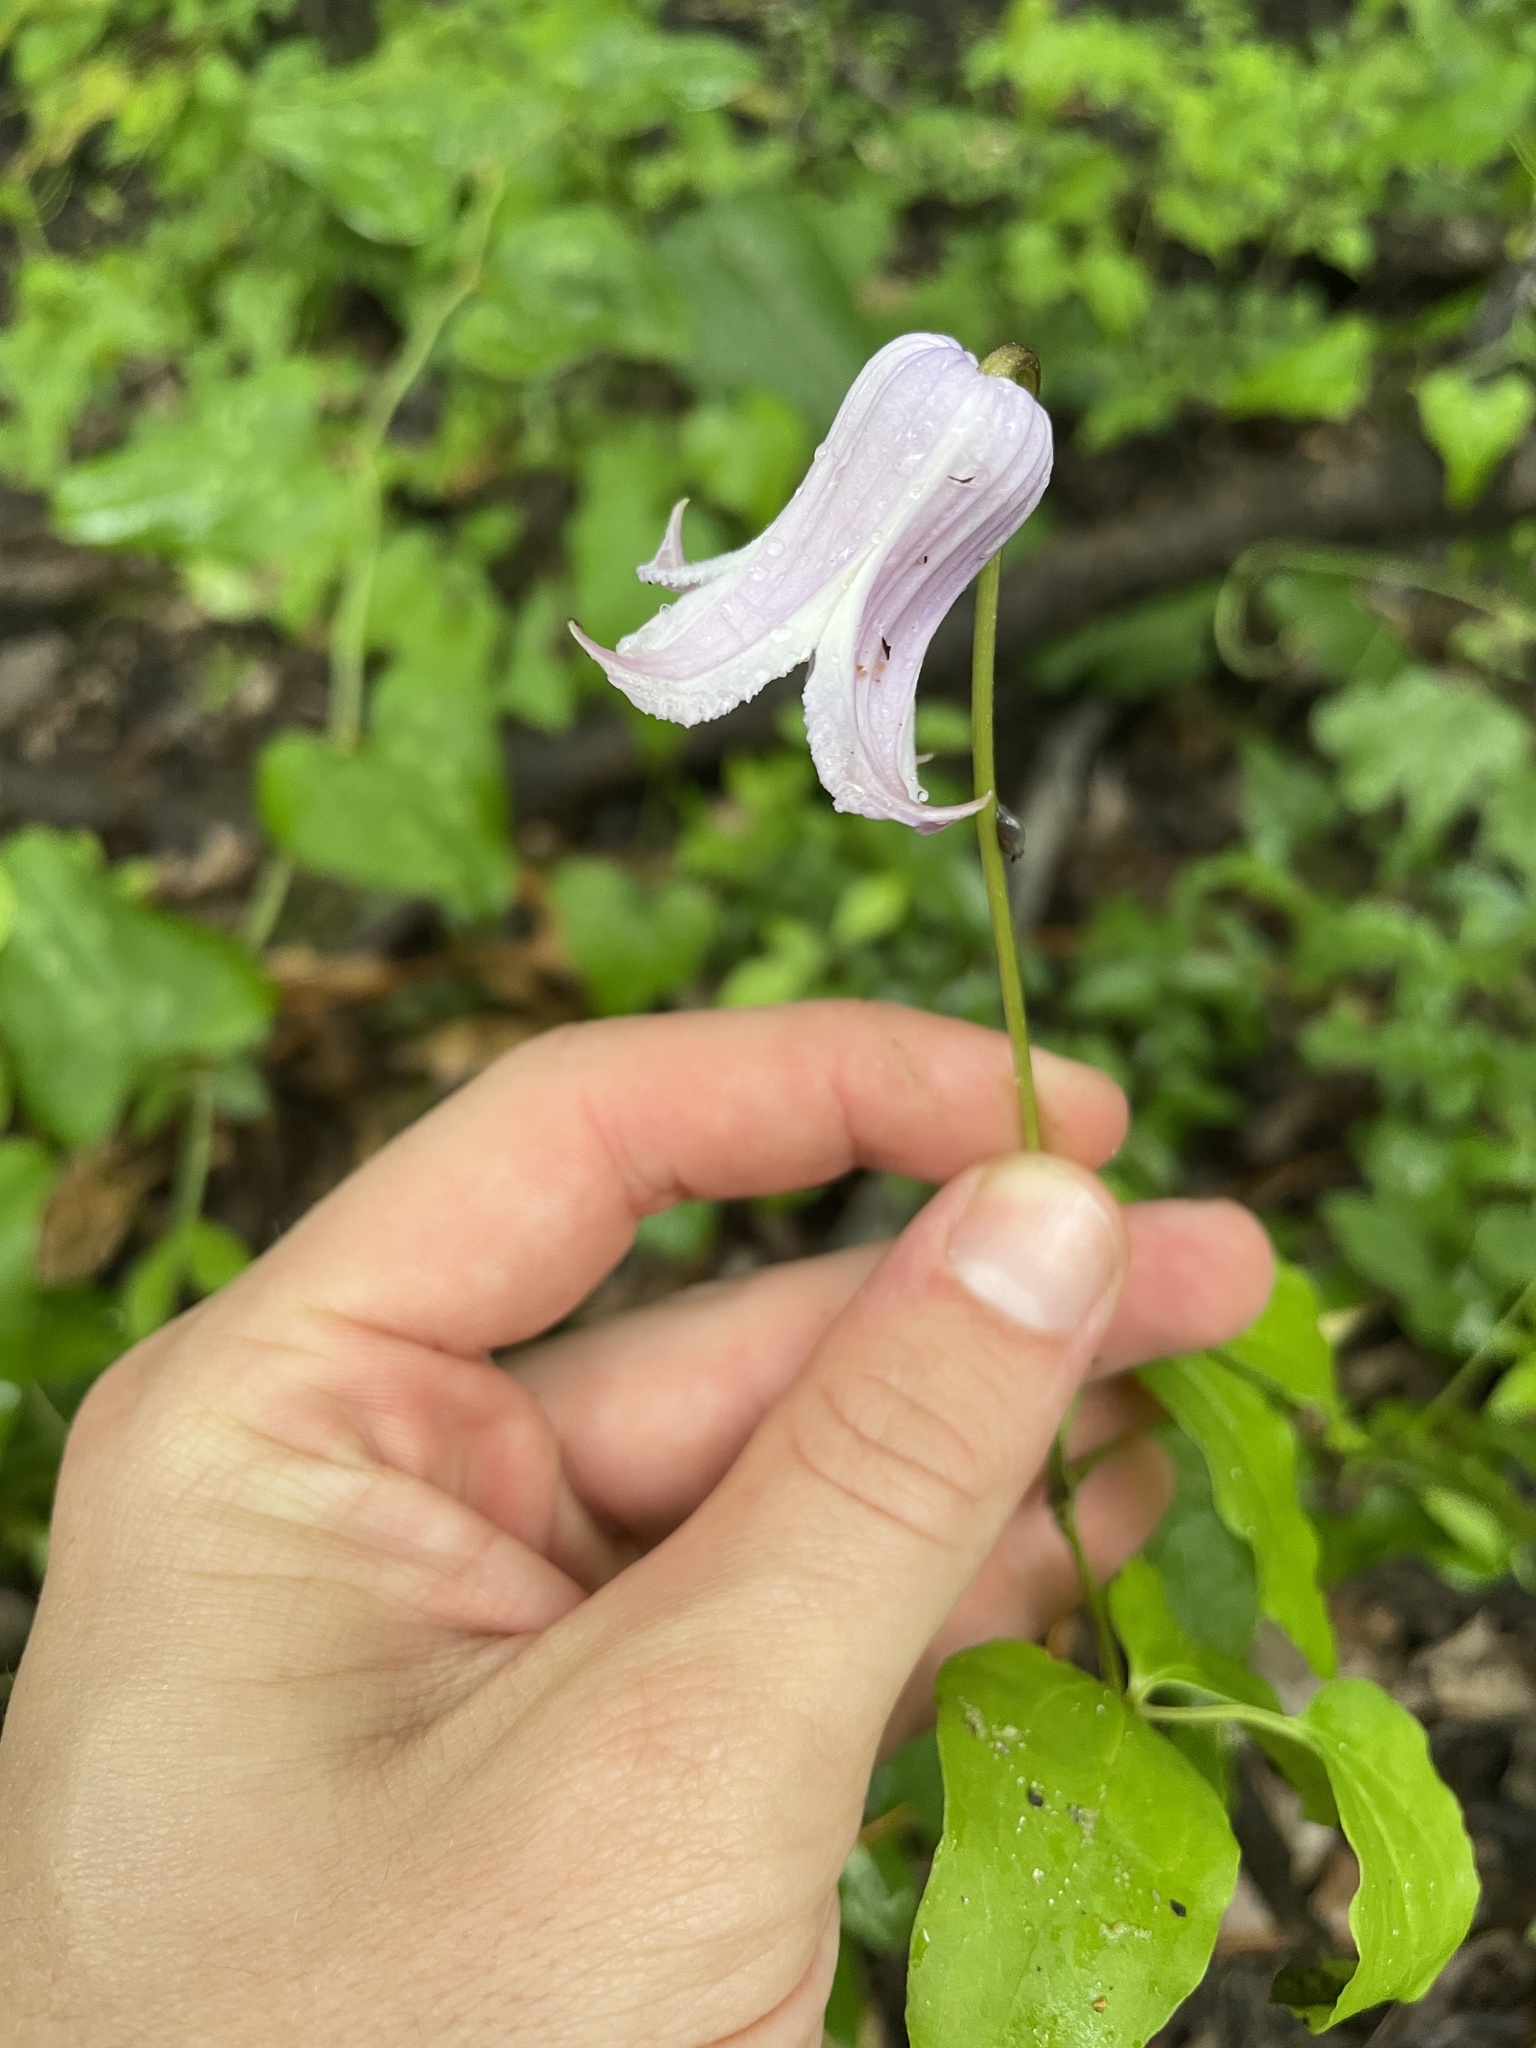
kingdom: Plantae
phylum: Tracheophyta
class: Magnoliopsida
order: Ranunculales
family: Ranunculaceae
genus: Clematis
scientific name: Clematis crispa
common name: Curly clematis
